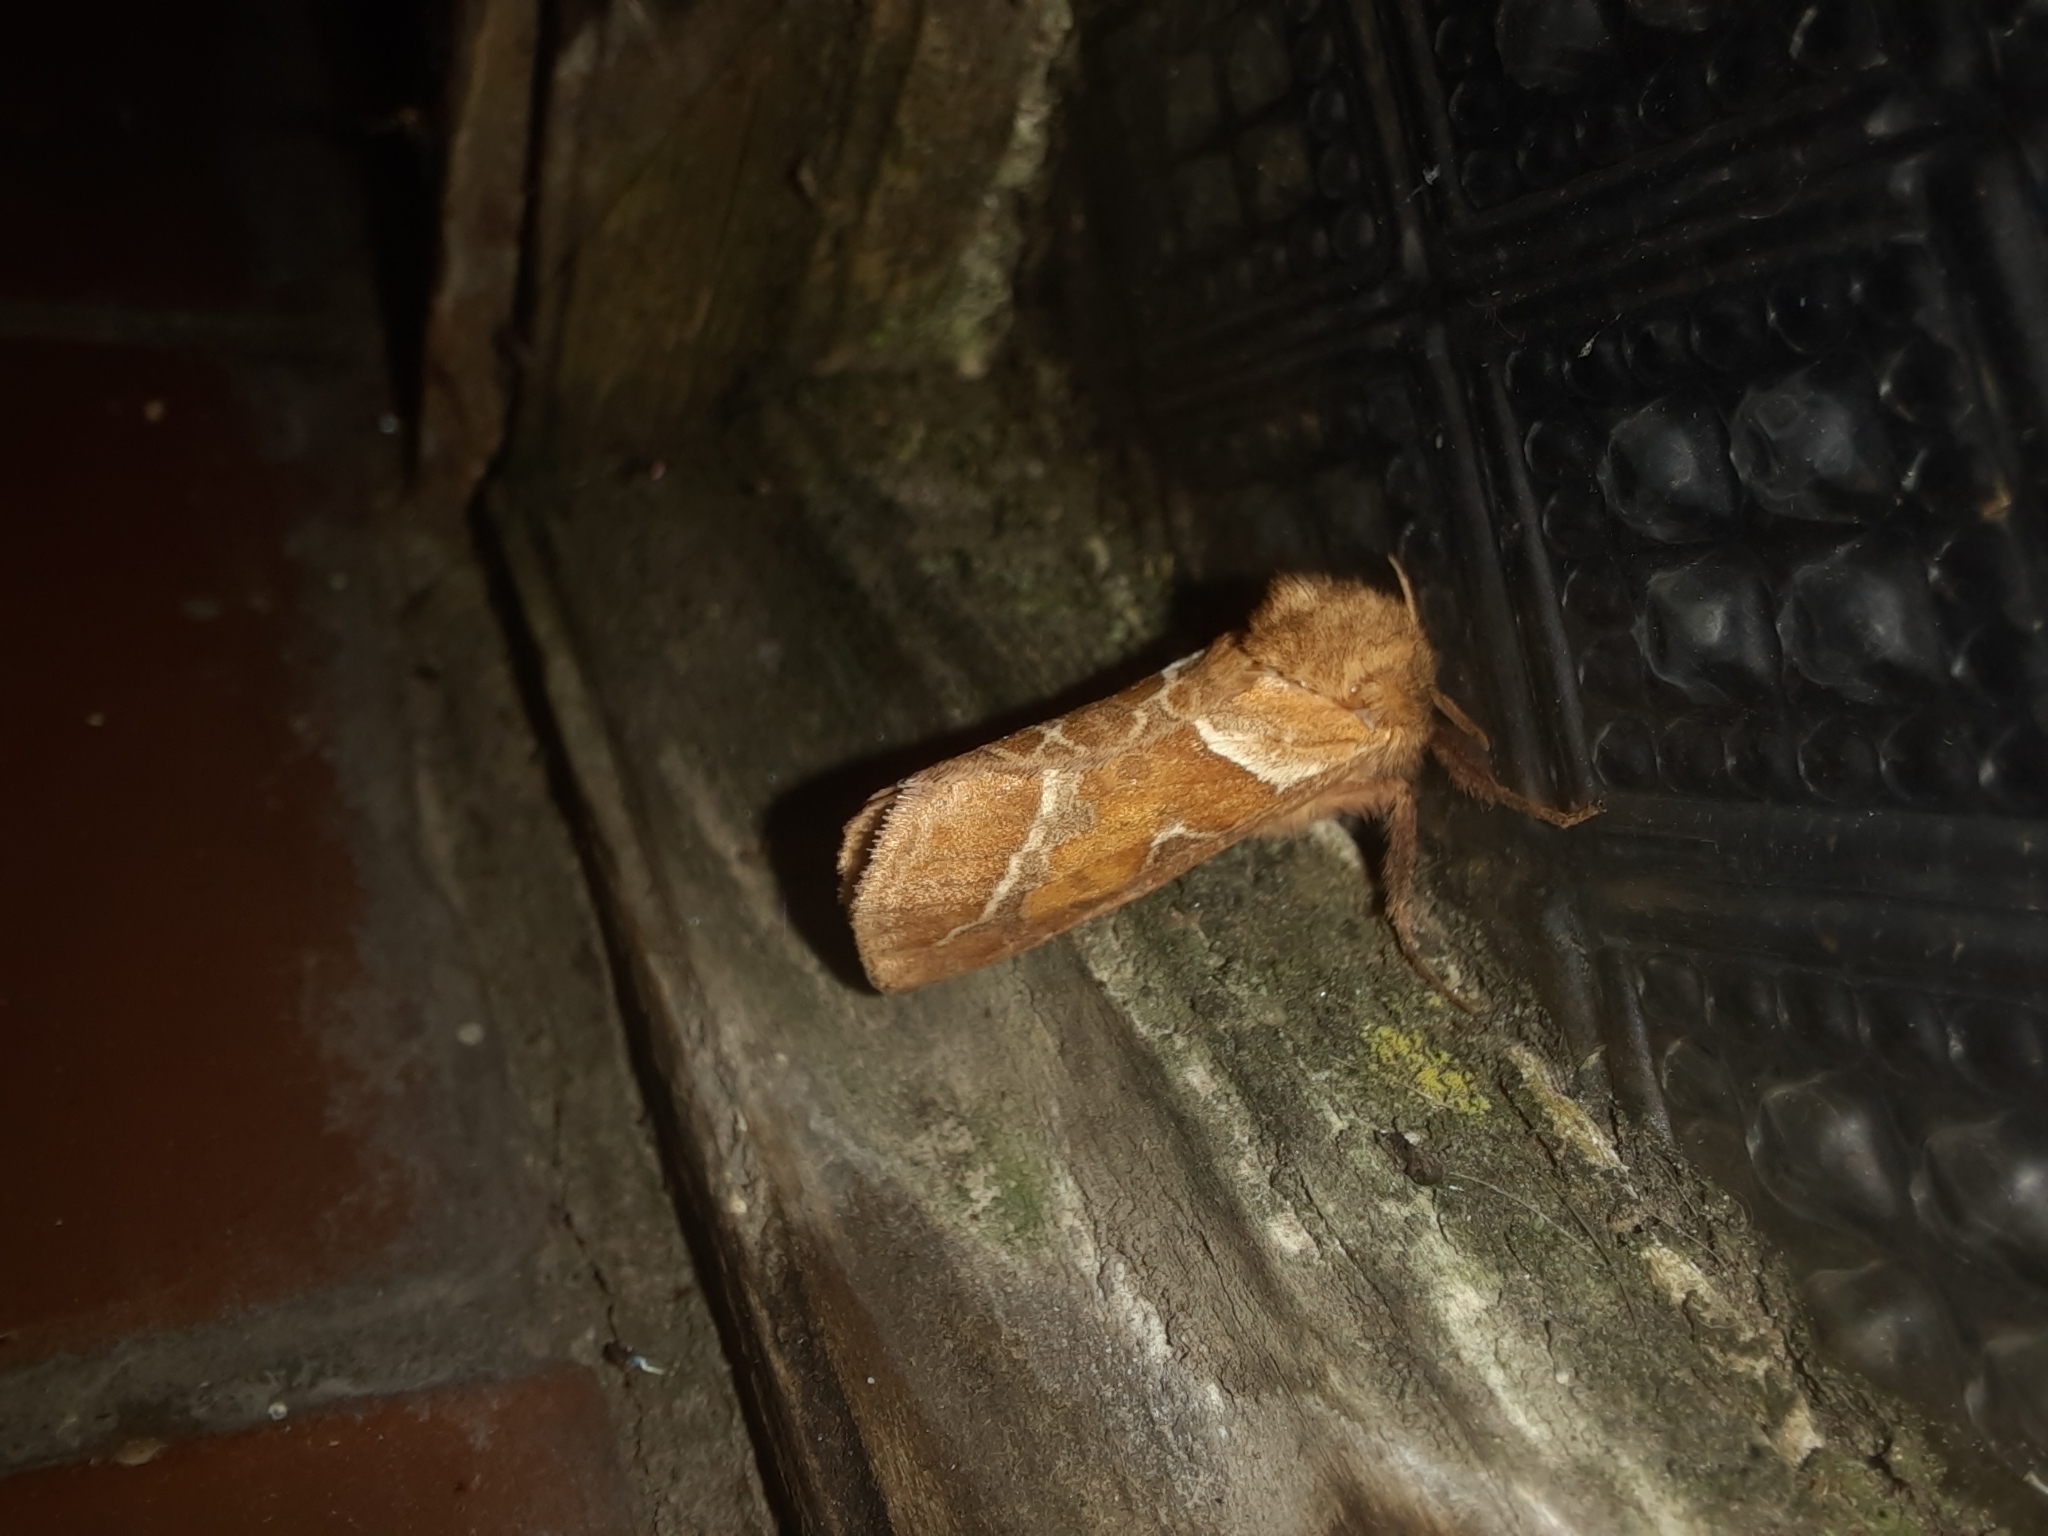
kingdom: Animalia
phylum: Arthropoda
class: Insecta
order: Lepidoptera
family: Hepialidae
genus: Triodia
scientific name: Triodia sylvina
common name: Orange swift
